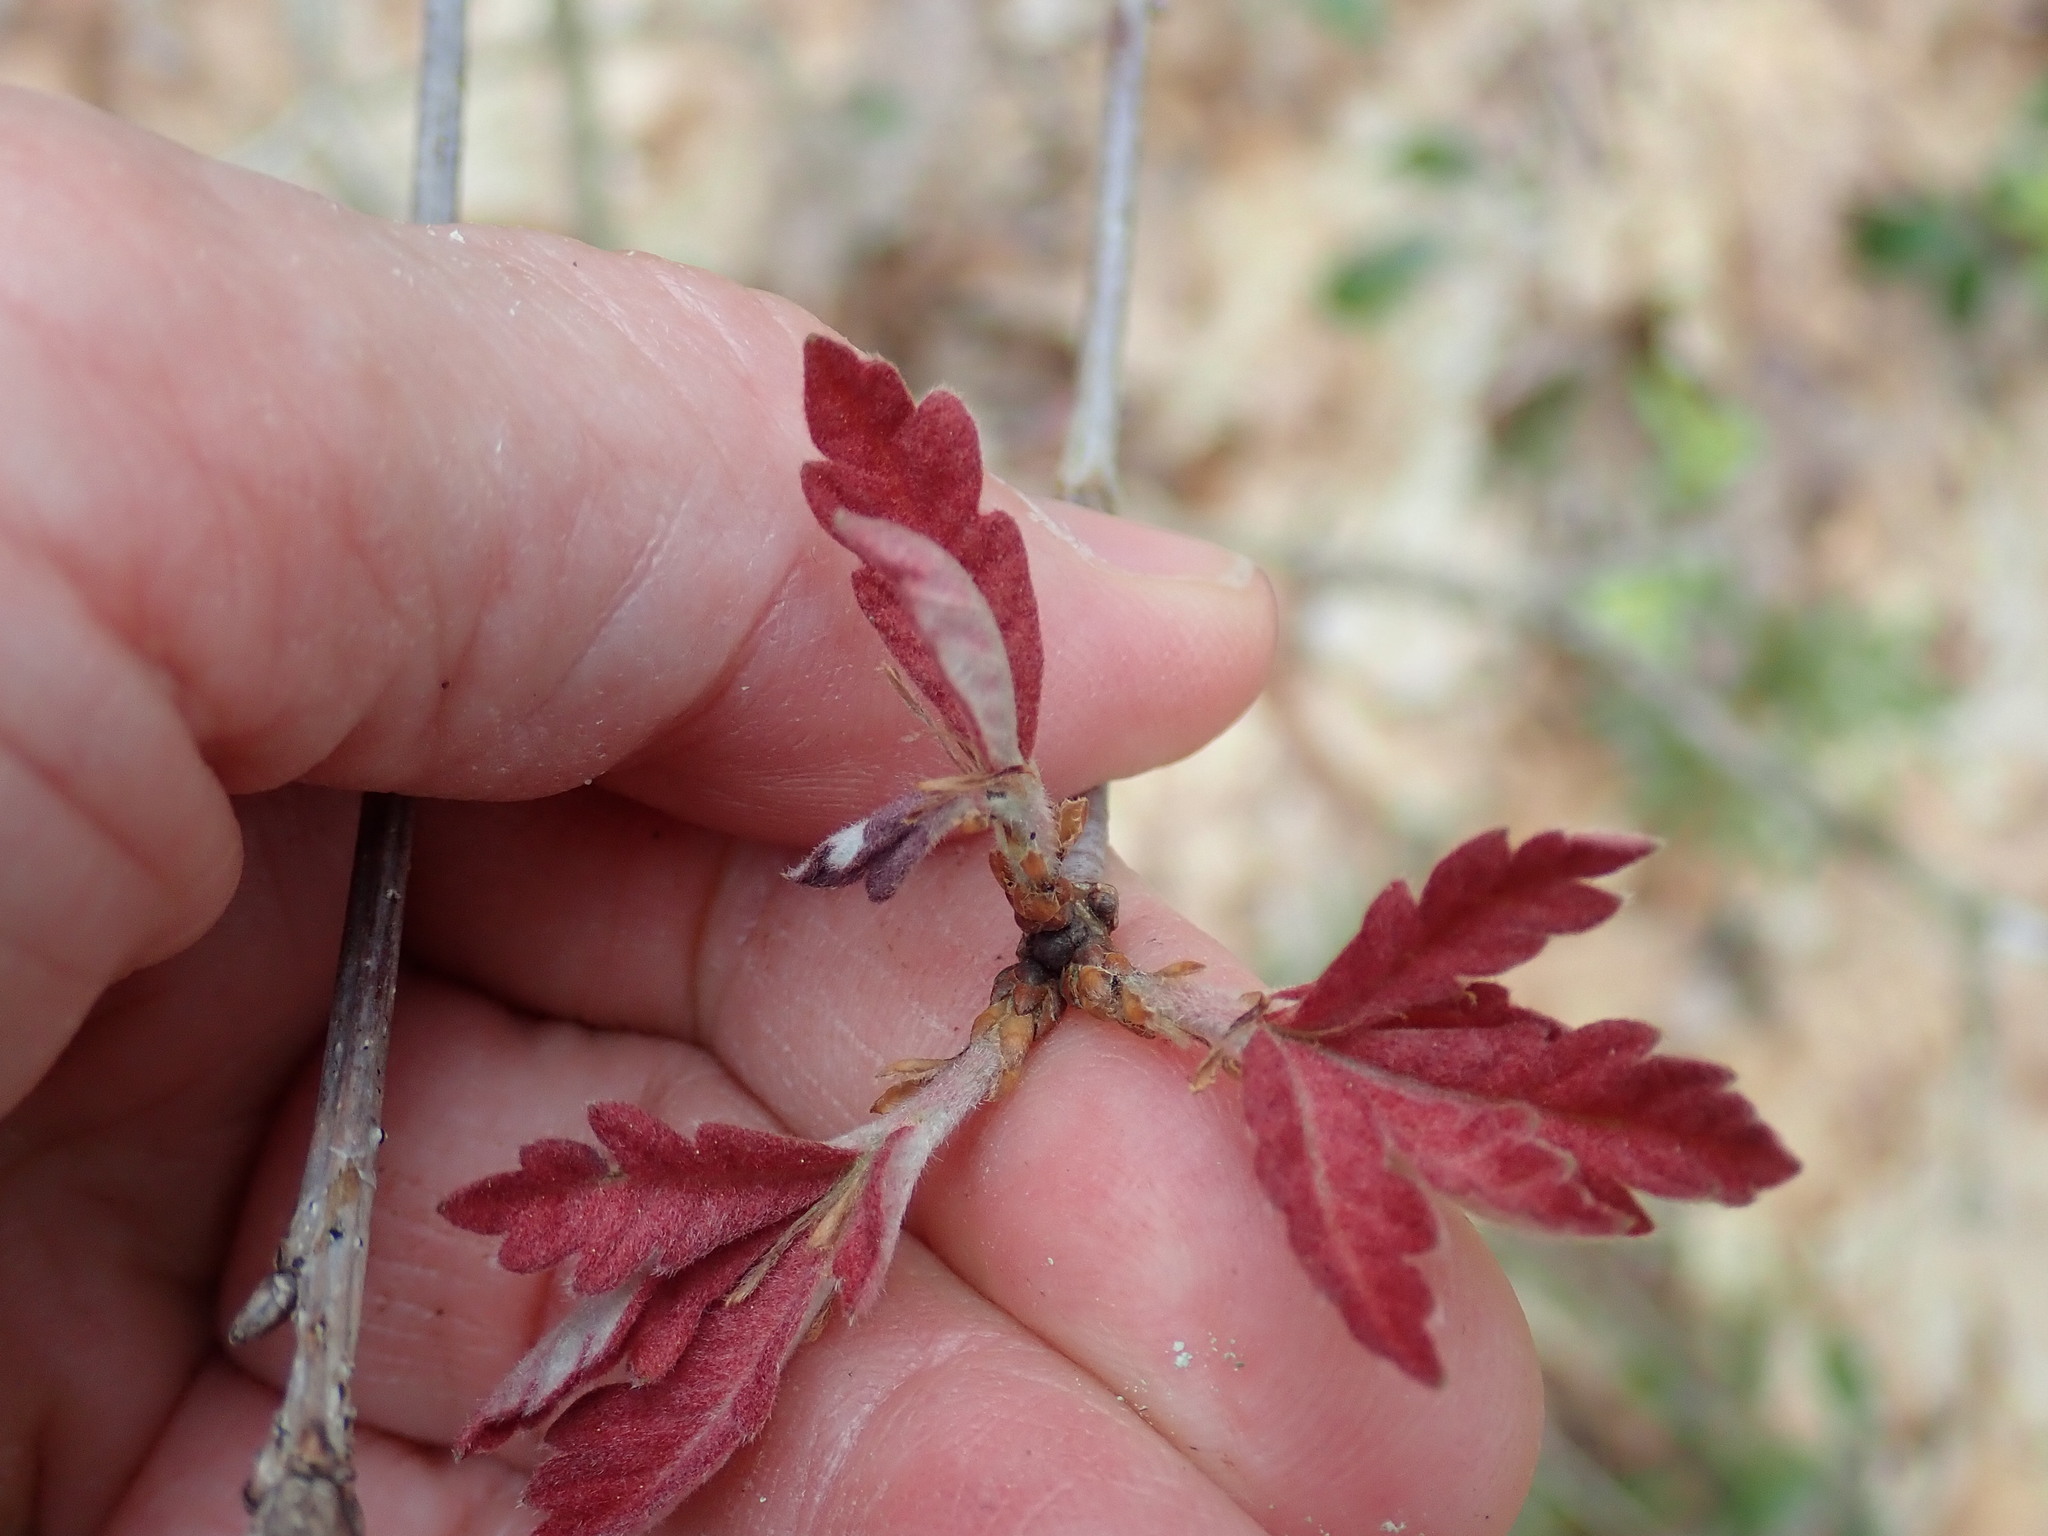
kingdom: Animalia
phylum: Arthropoda
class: Insecta
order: Hymenoptera
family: Cynipidae
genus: Disholcaspis
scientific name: Disholcaspis quercusglobulus
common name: Round bullet gall wasp
